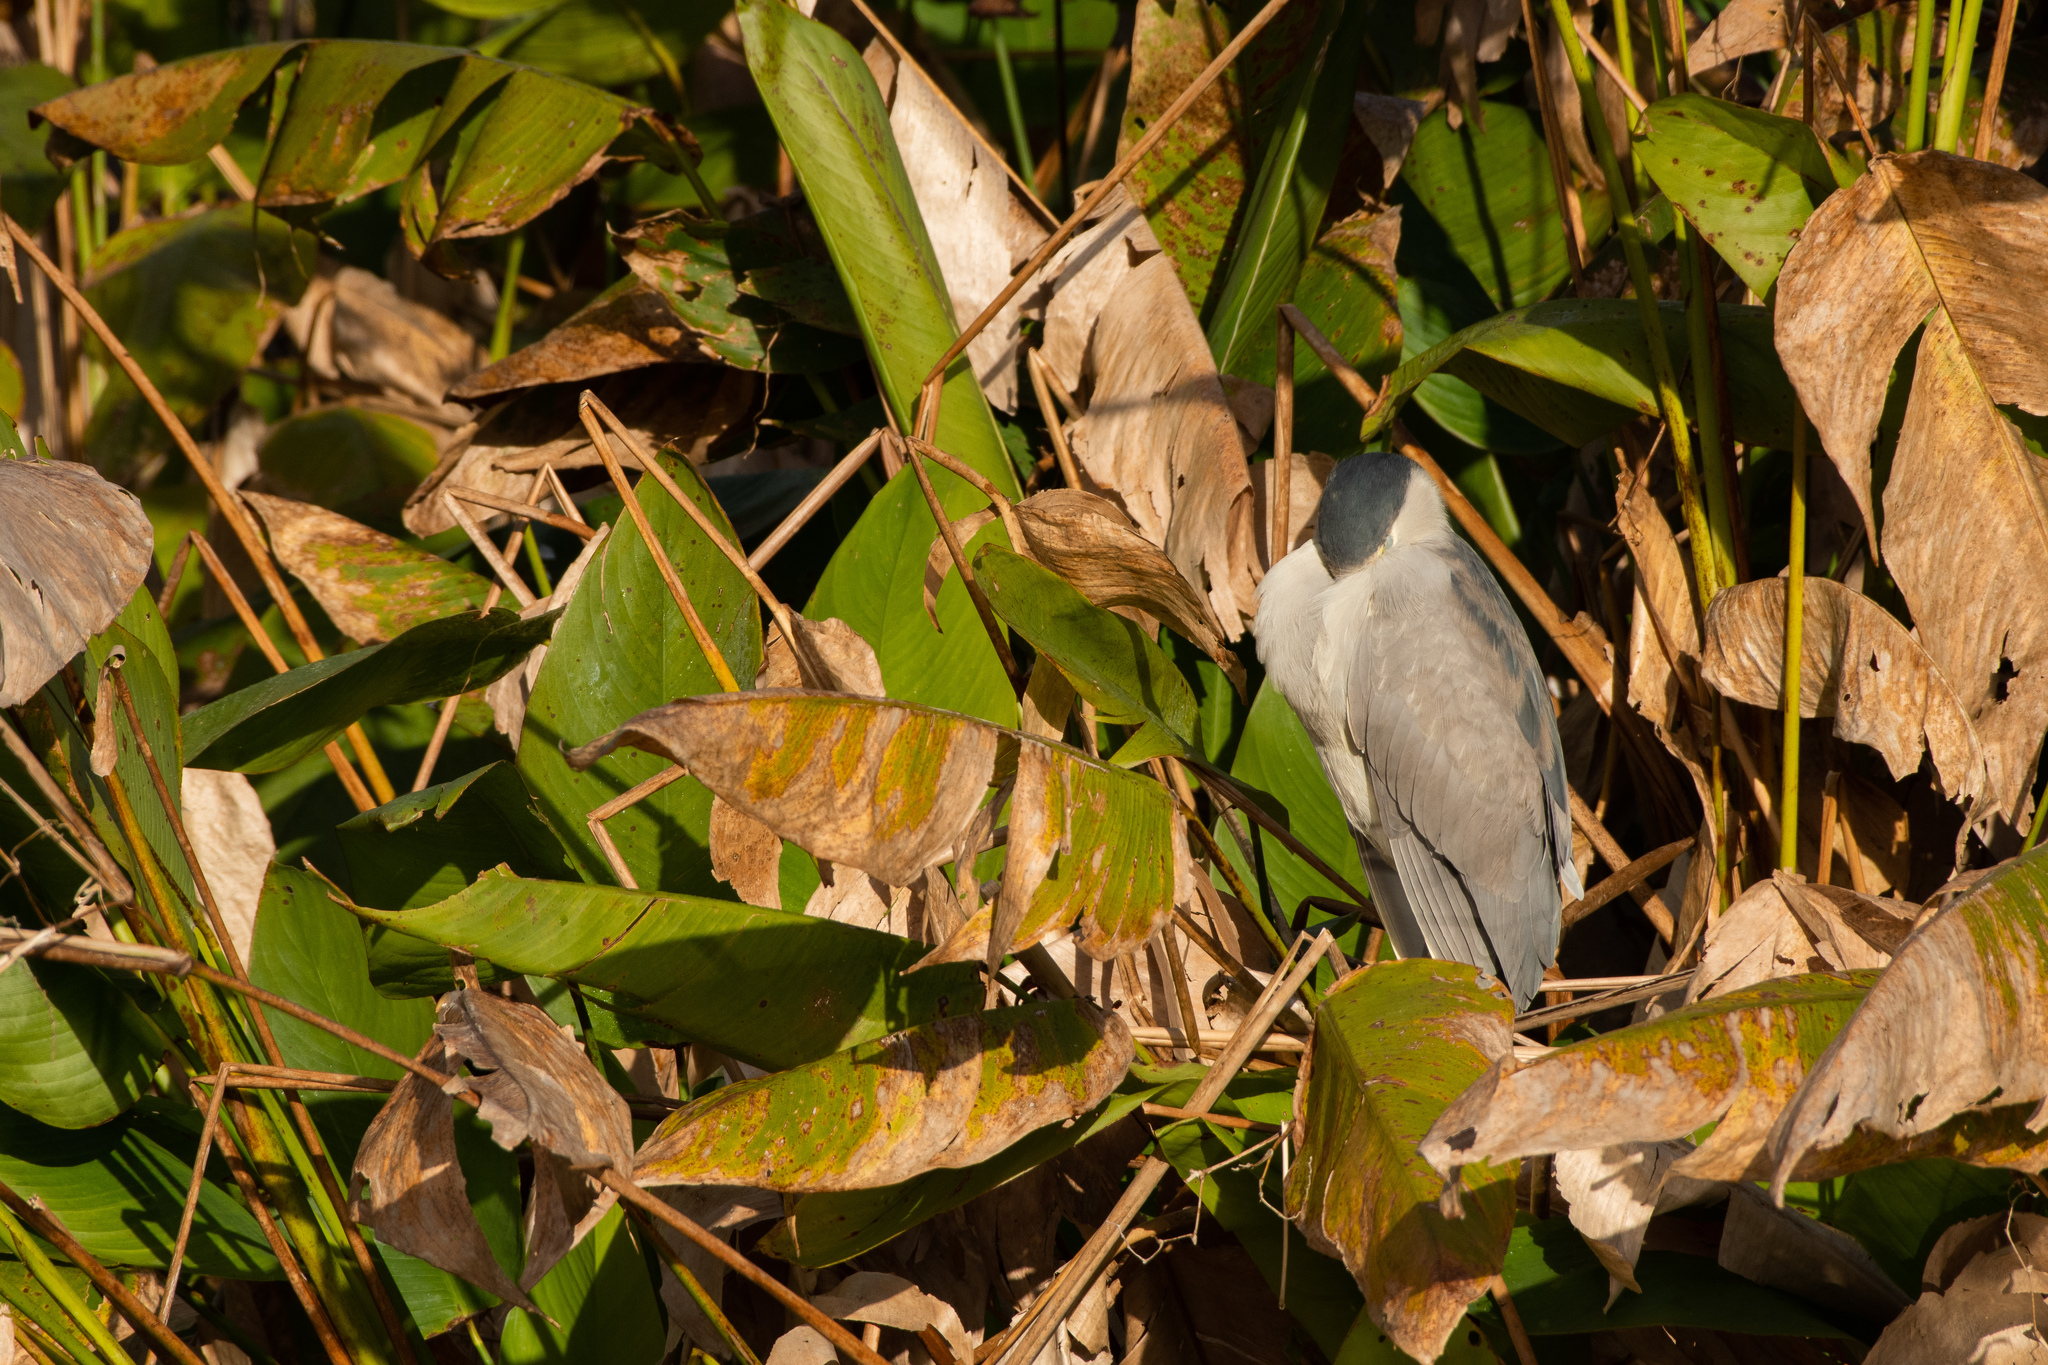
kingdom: Animalia
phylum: Chordata
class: Aves
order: Pelecaniformes
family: Ardeidae
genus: Nycticorax
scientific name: Nycticorax nycticorax
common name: Black-crowned night heron
